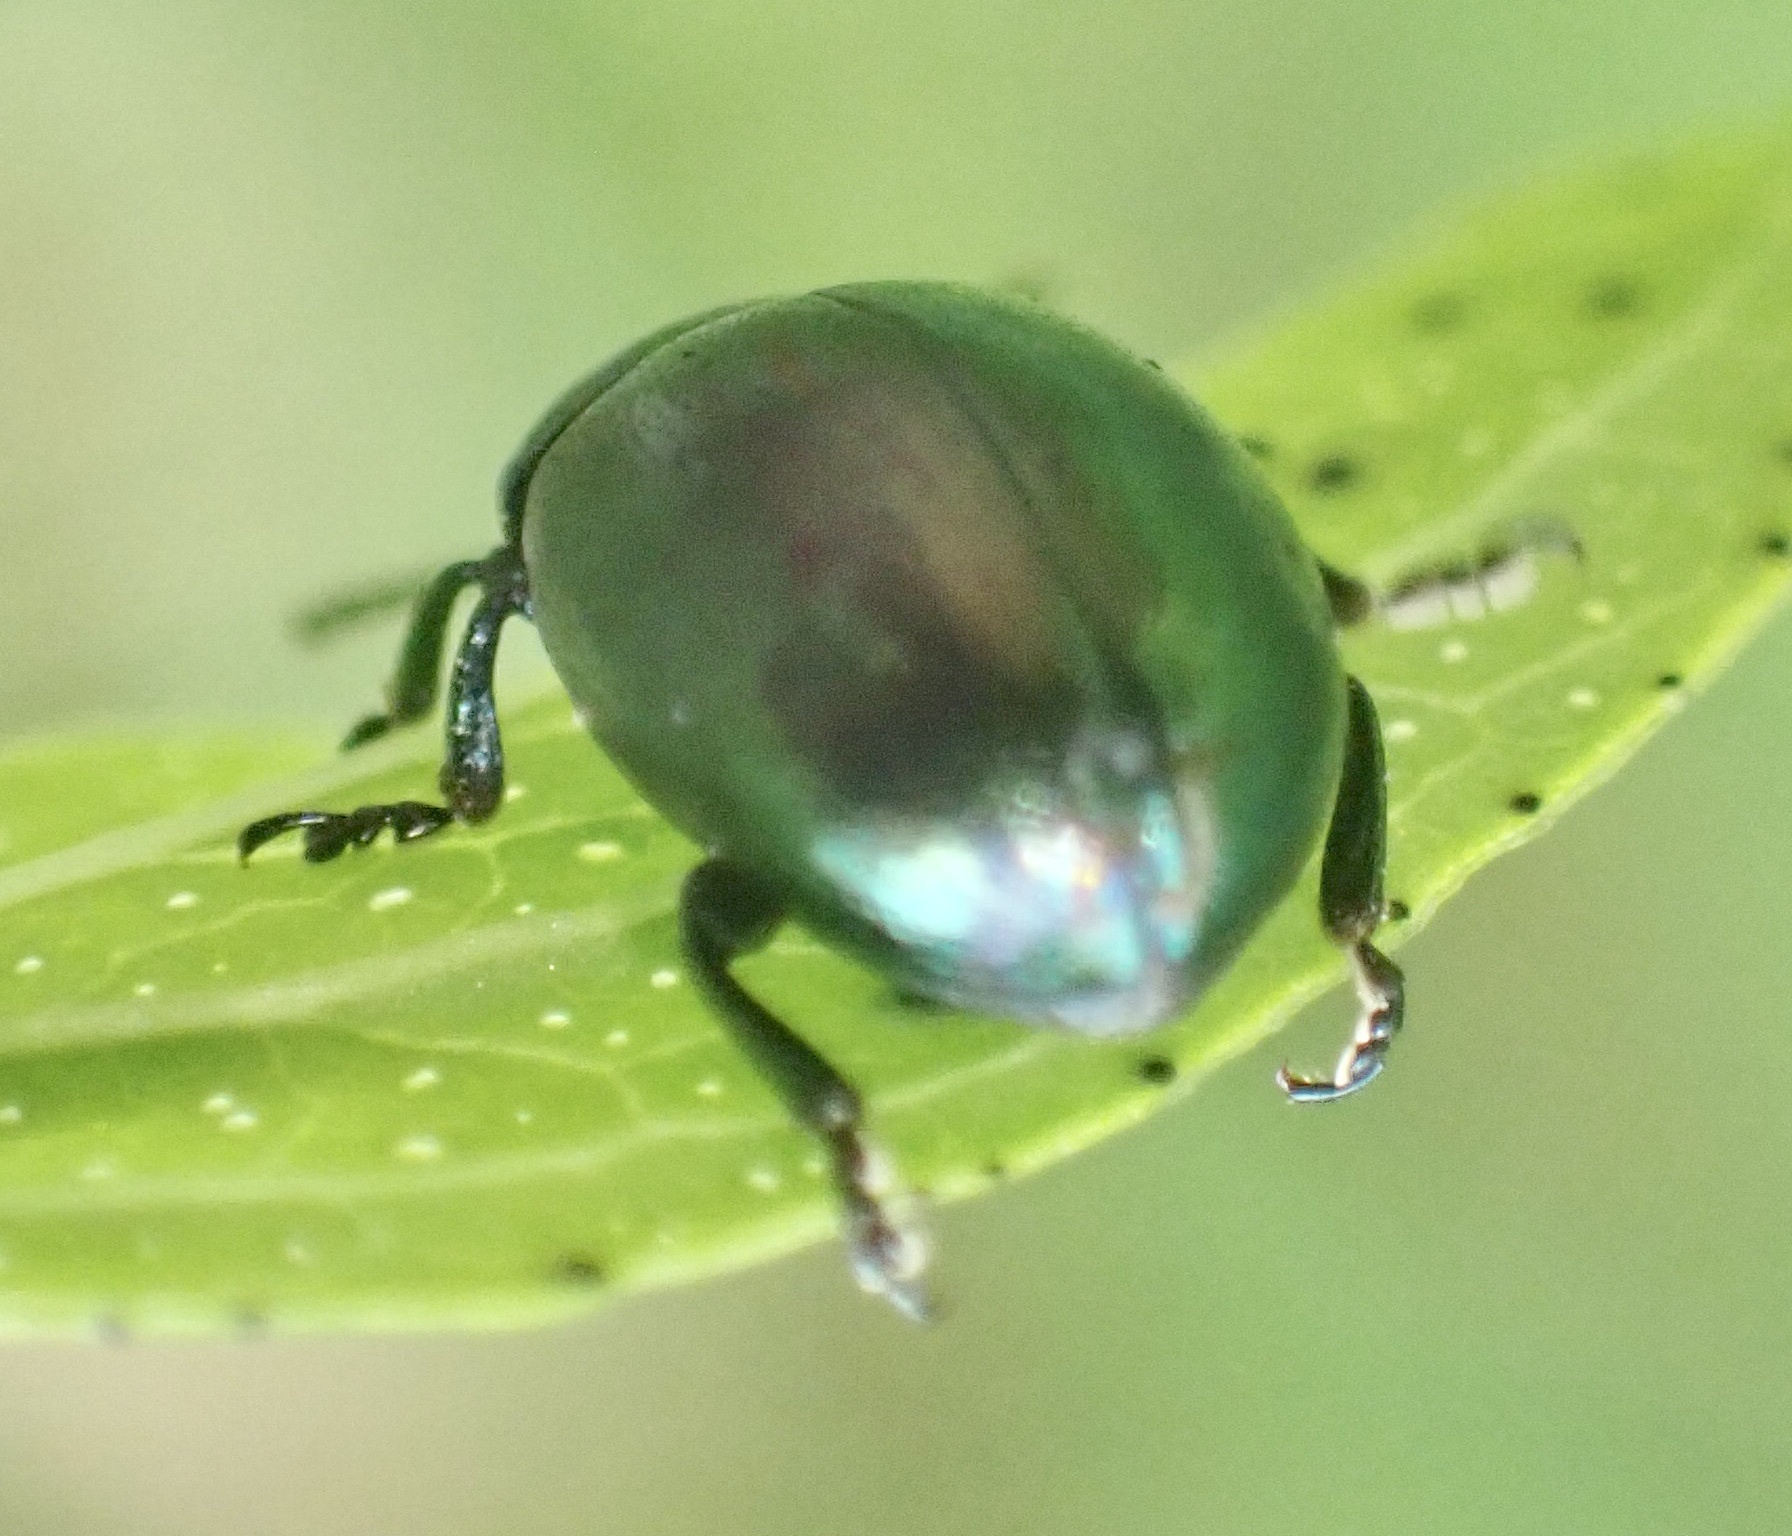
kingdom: Animalia
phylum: Arthropoda
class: Insecta
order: Coleoptera
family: Chrysomelidae
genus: Chrysolina
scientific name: Chrysolina varians
